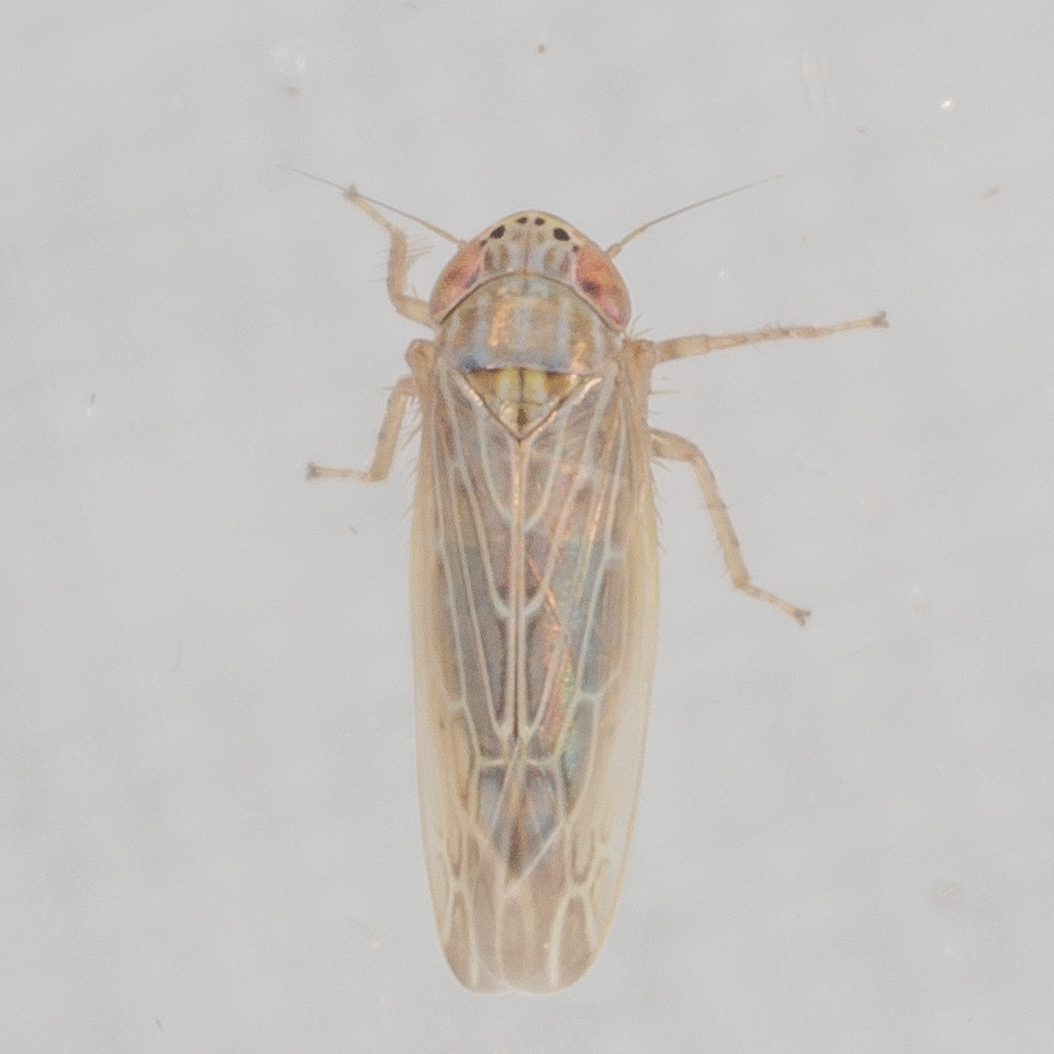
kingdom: Animalia
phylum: Arthropoda
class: Insecta
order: Hemiptera
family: Cicadellidae
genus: Graminella
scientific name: Graminella sonora
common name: Lesser lawn leafhopper
